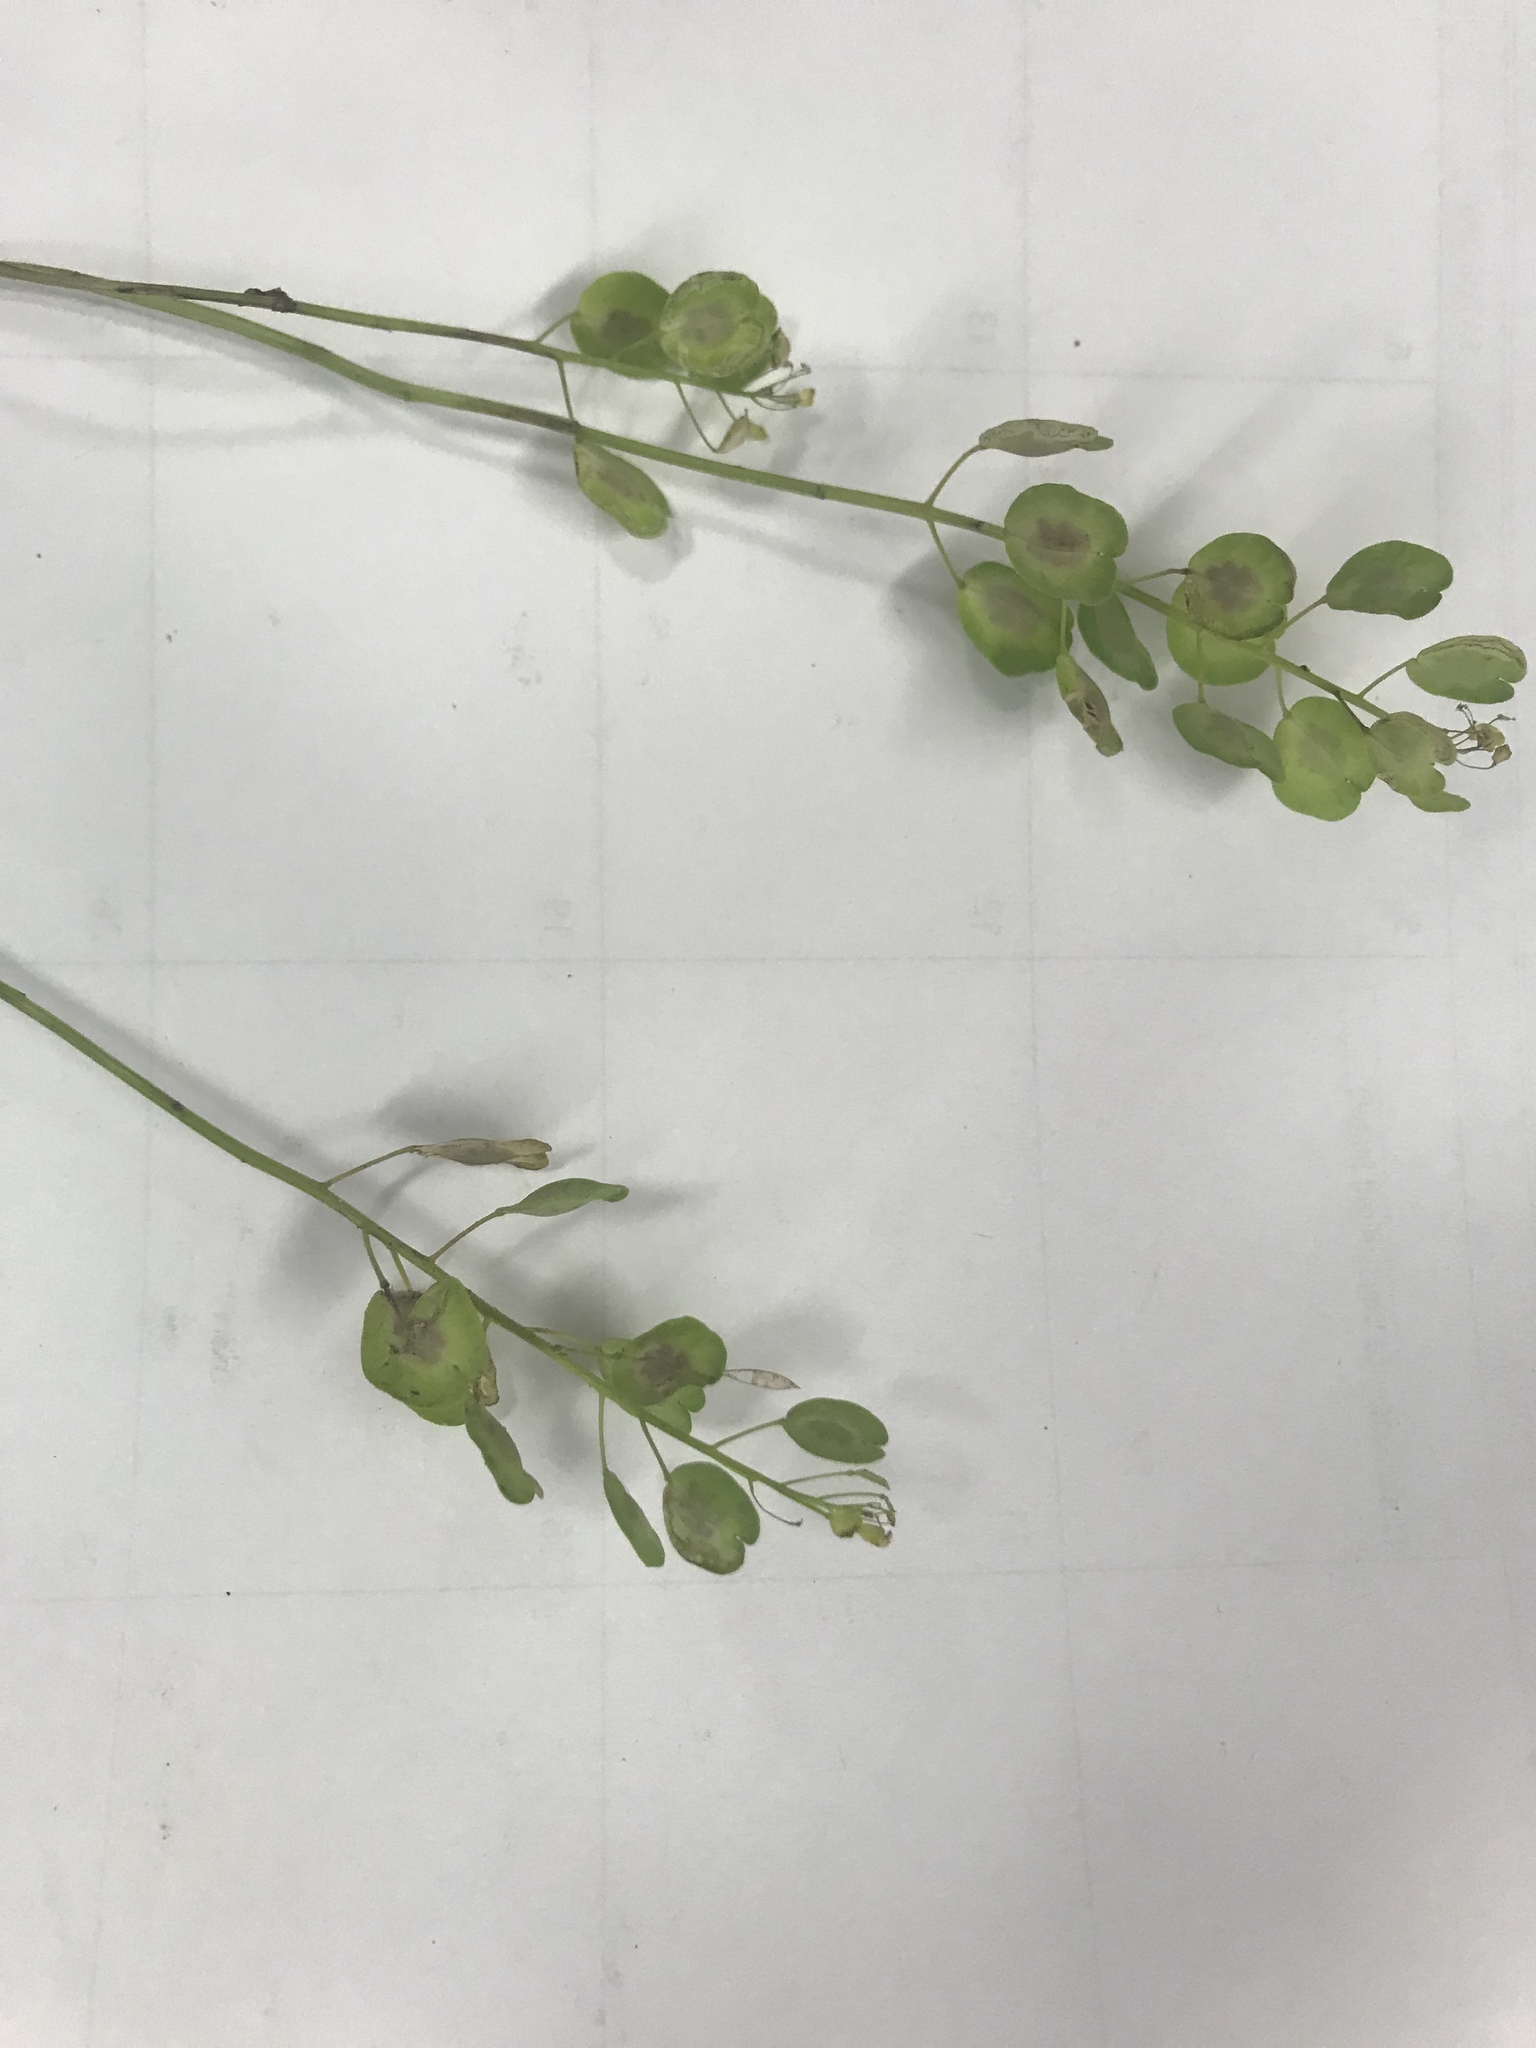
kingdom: Plantae
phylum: Tracheophyta
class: Magnoliopsida
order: Brassicales
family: Brassicaceae
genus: Thlaspi
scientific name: Thlaspi arvense
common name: Field pennycress
